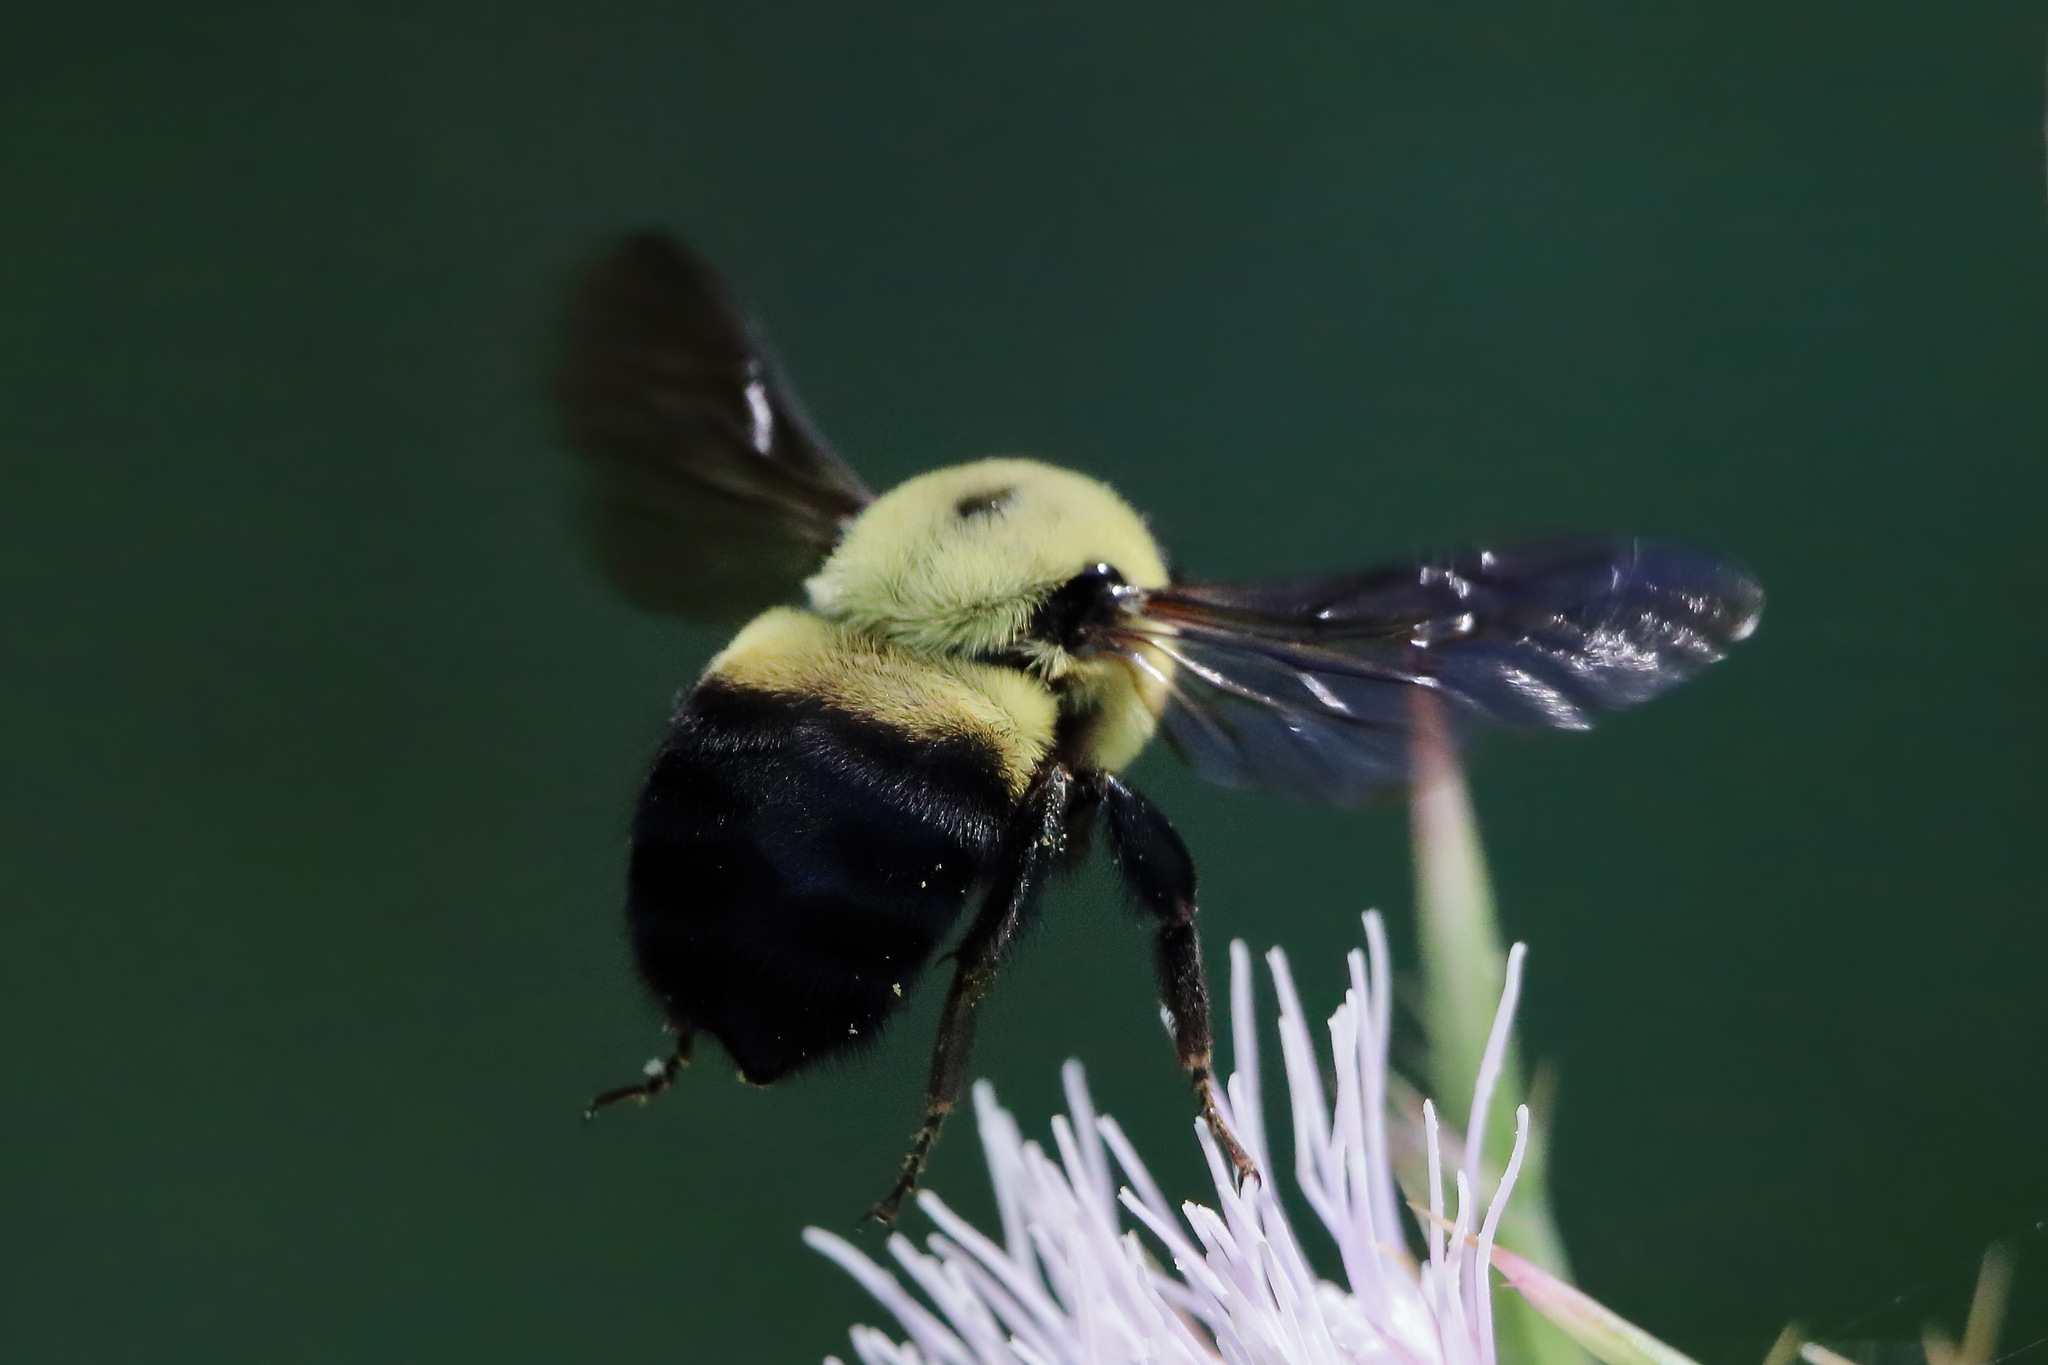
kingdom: Animalia
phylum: Arthropoda
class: Insecta
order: Hymenoptera
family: Apidae
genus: Bombus
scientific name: Bombus griseocollis
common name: Brown-belted bumble bee
